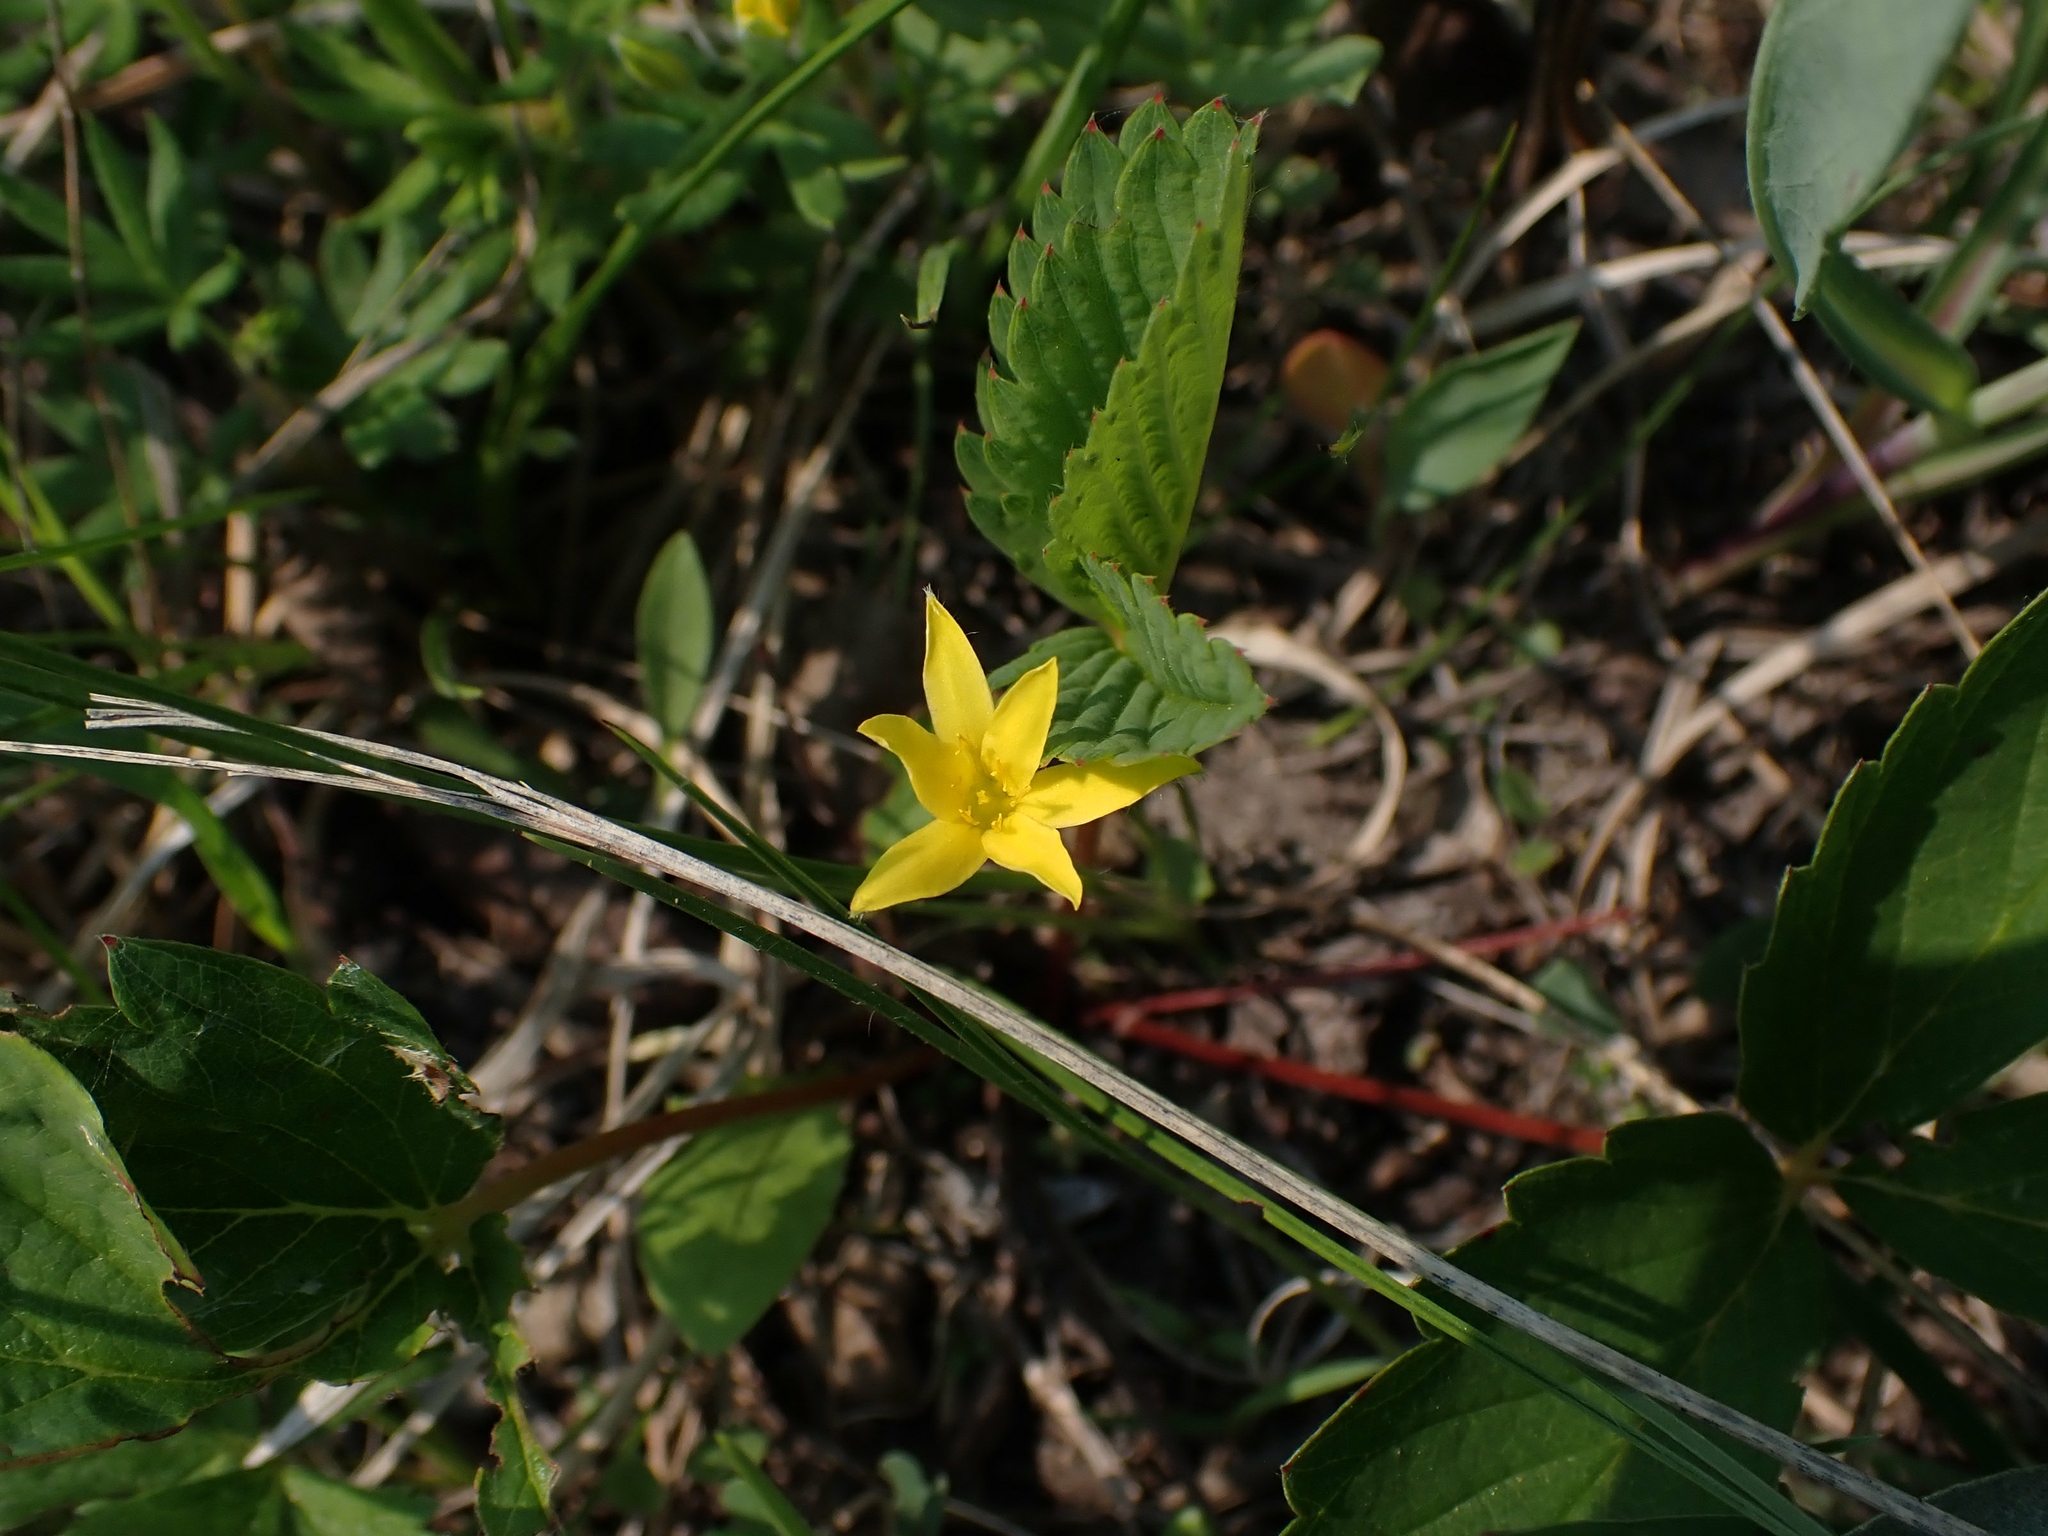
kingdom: Plantae
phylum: Tracheophyta
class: Liliopsida
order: Asparagales
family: Hypoxidaceae
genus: Hypoxis
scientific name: Hypoxis hirsuta
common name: Common goldstar
